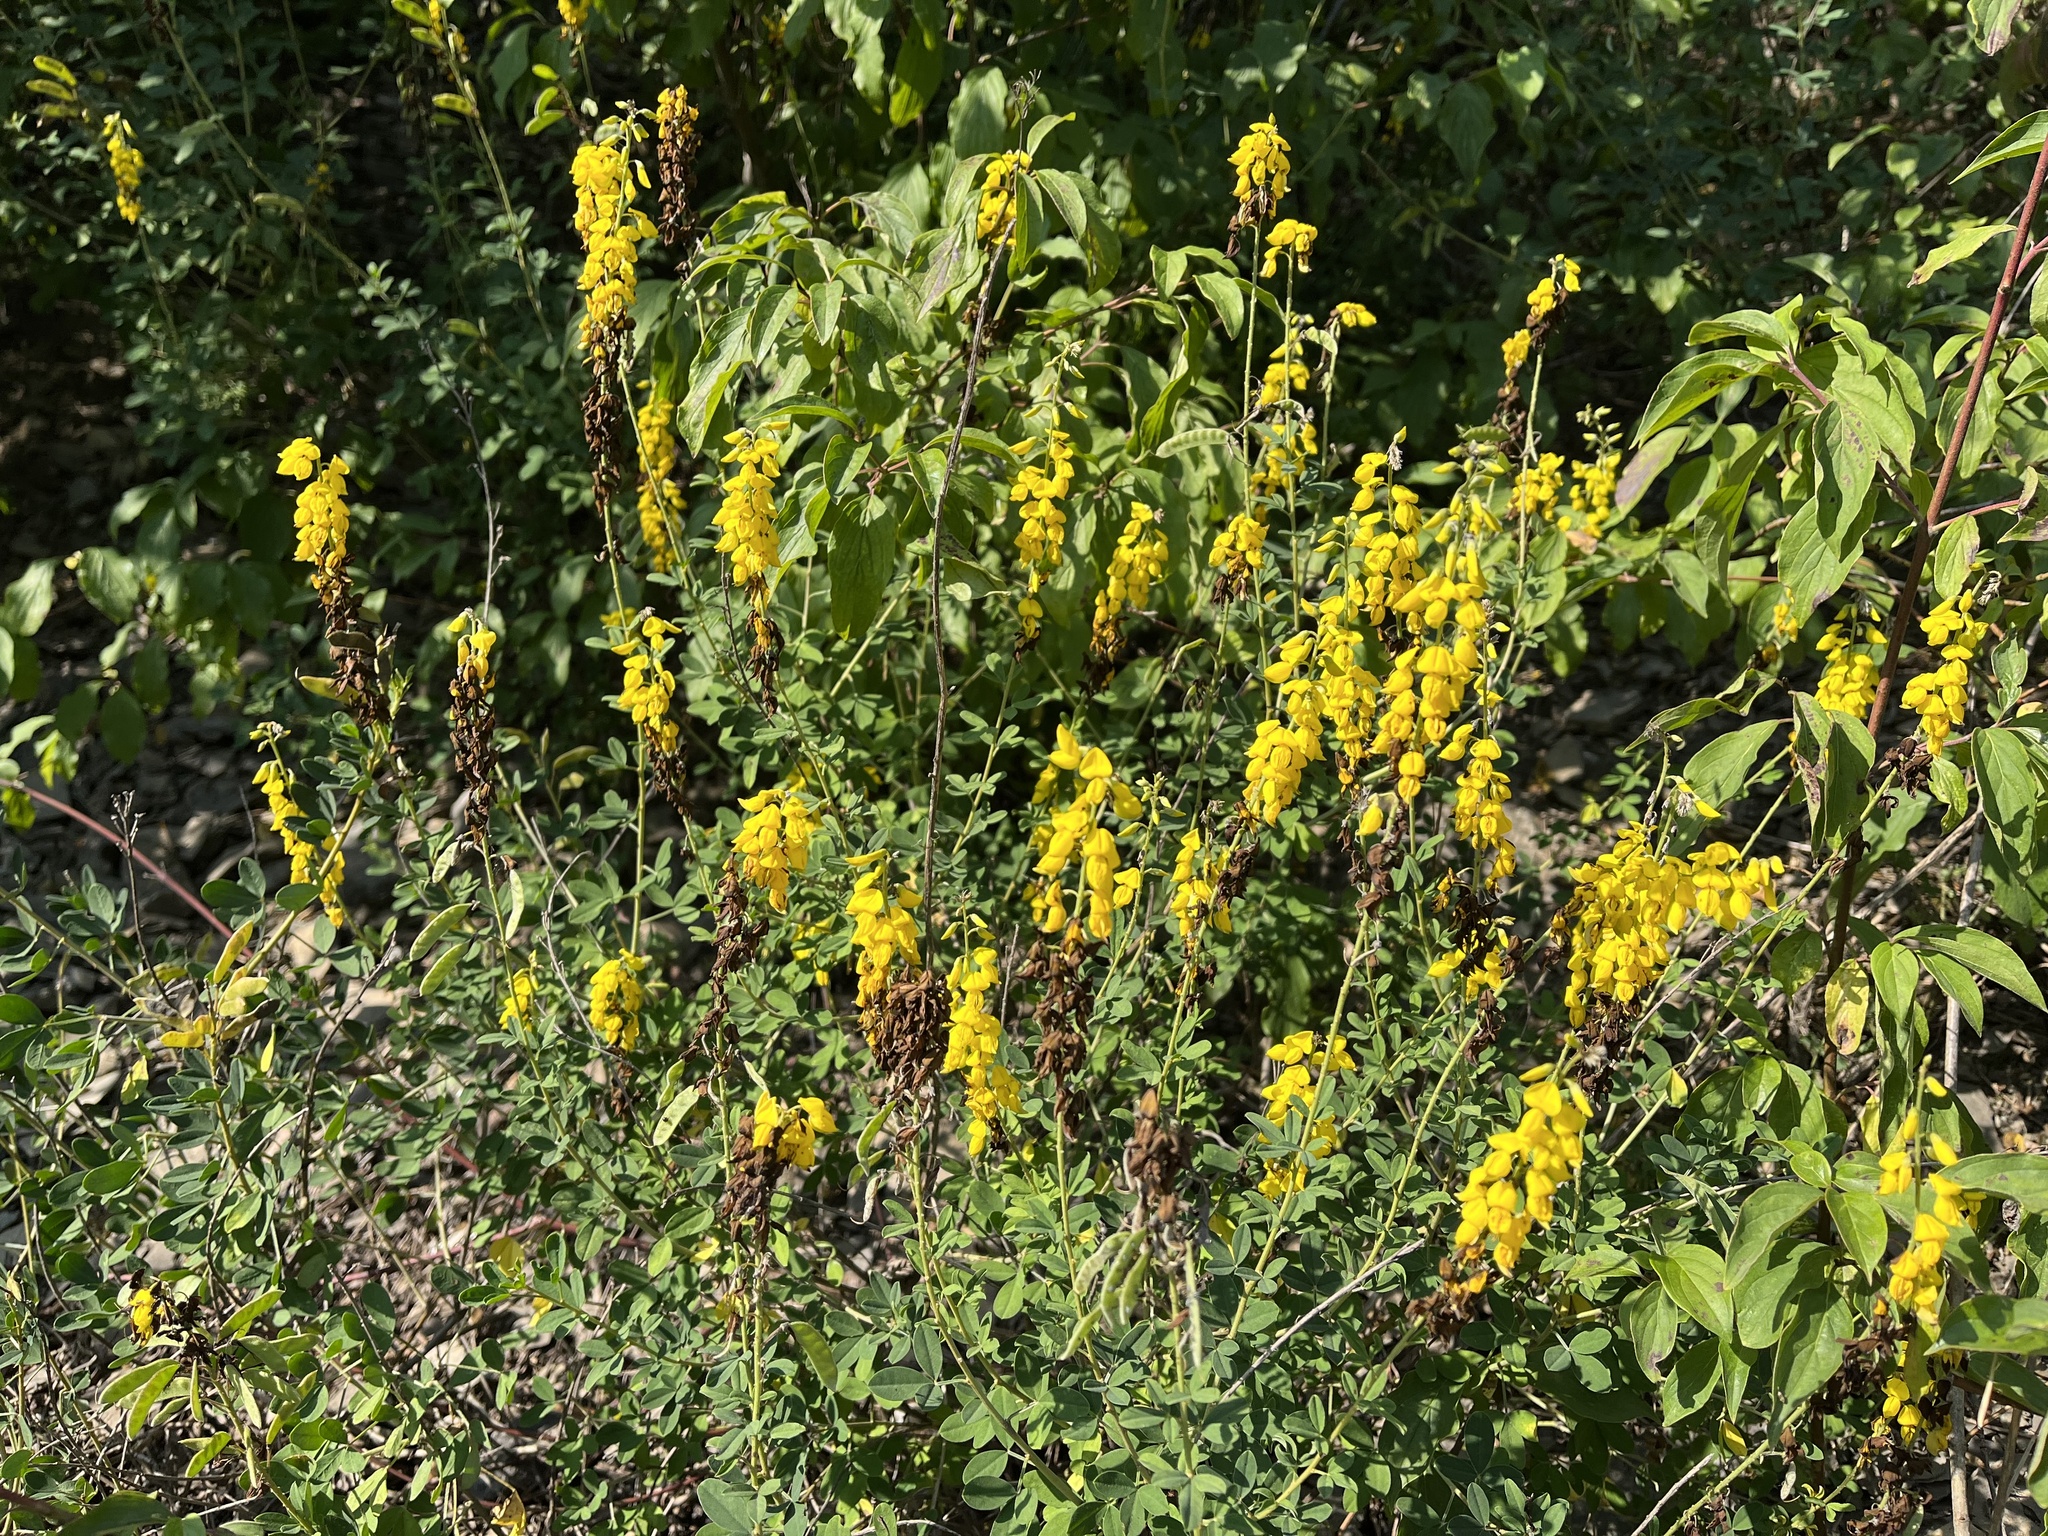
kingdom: Plantae
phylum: Tracheophyta
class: Magnoliopsida
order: Fabales
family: Fabaceae
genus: Cytisus
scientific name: Cytisus nigricans
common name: Black broom
